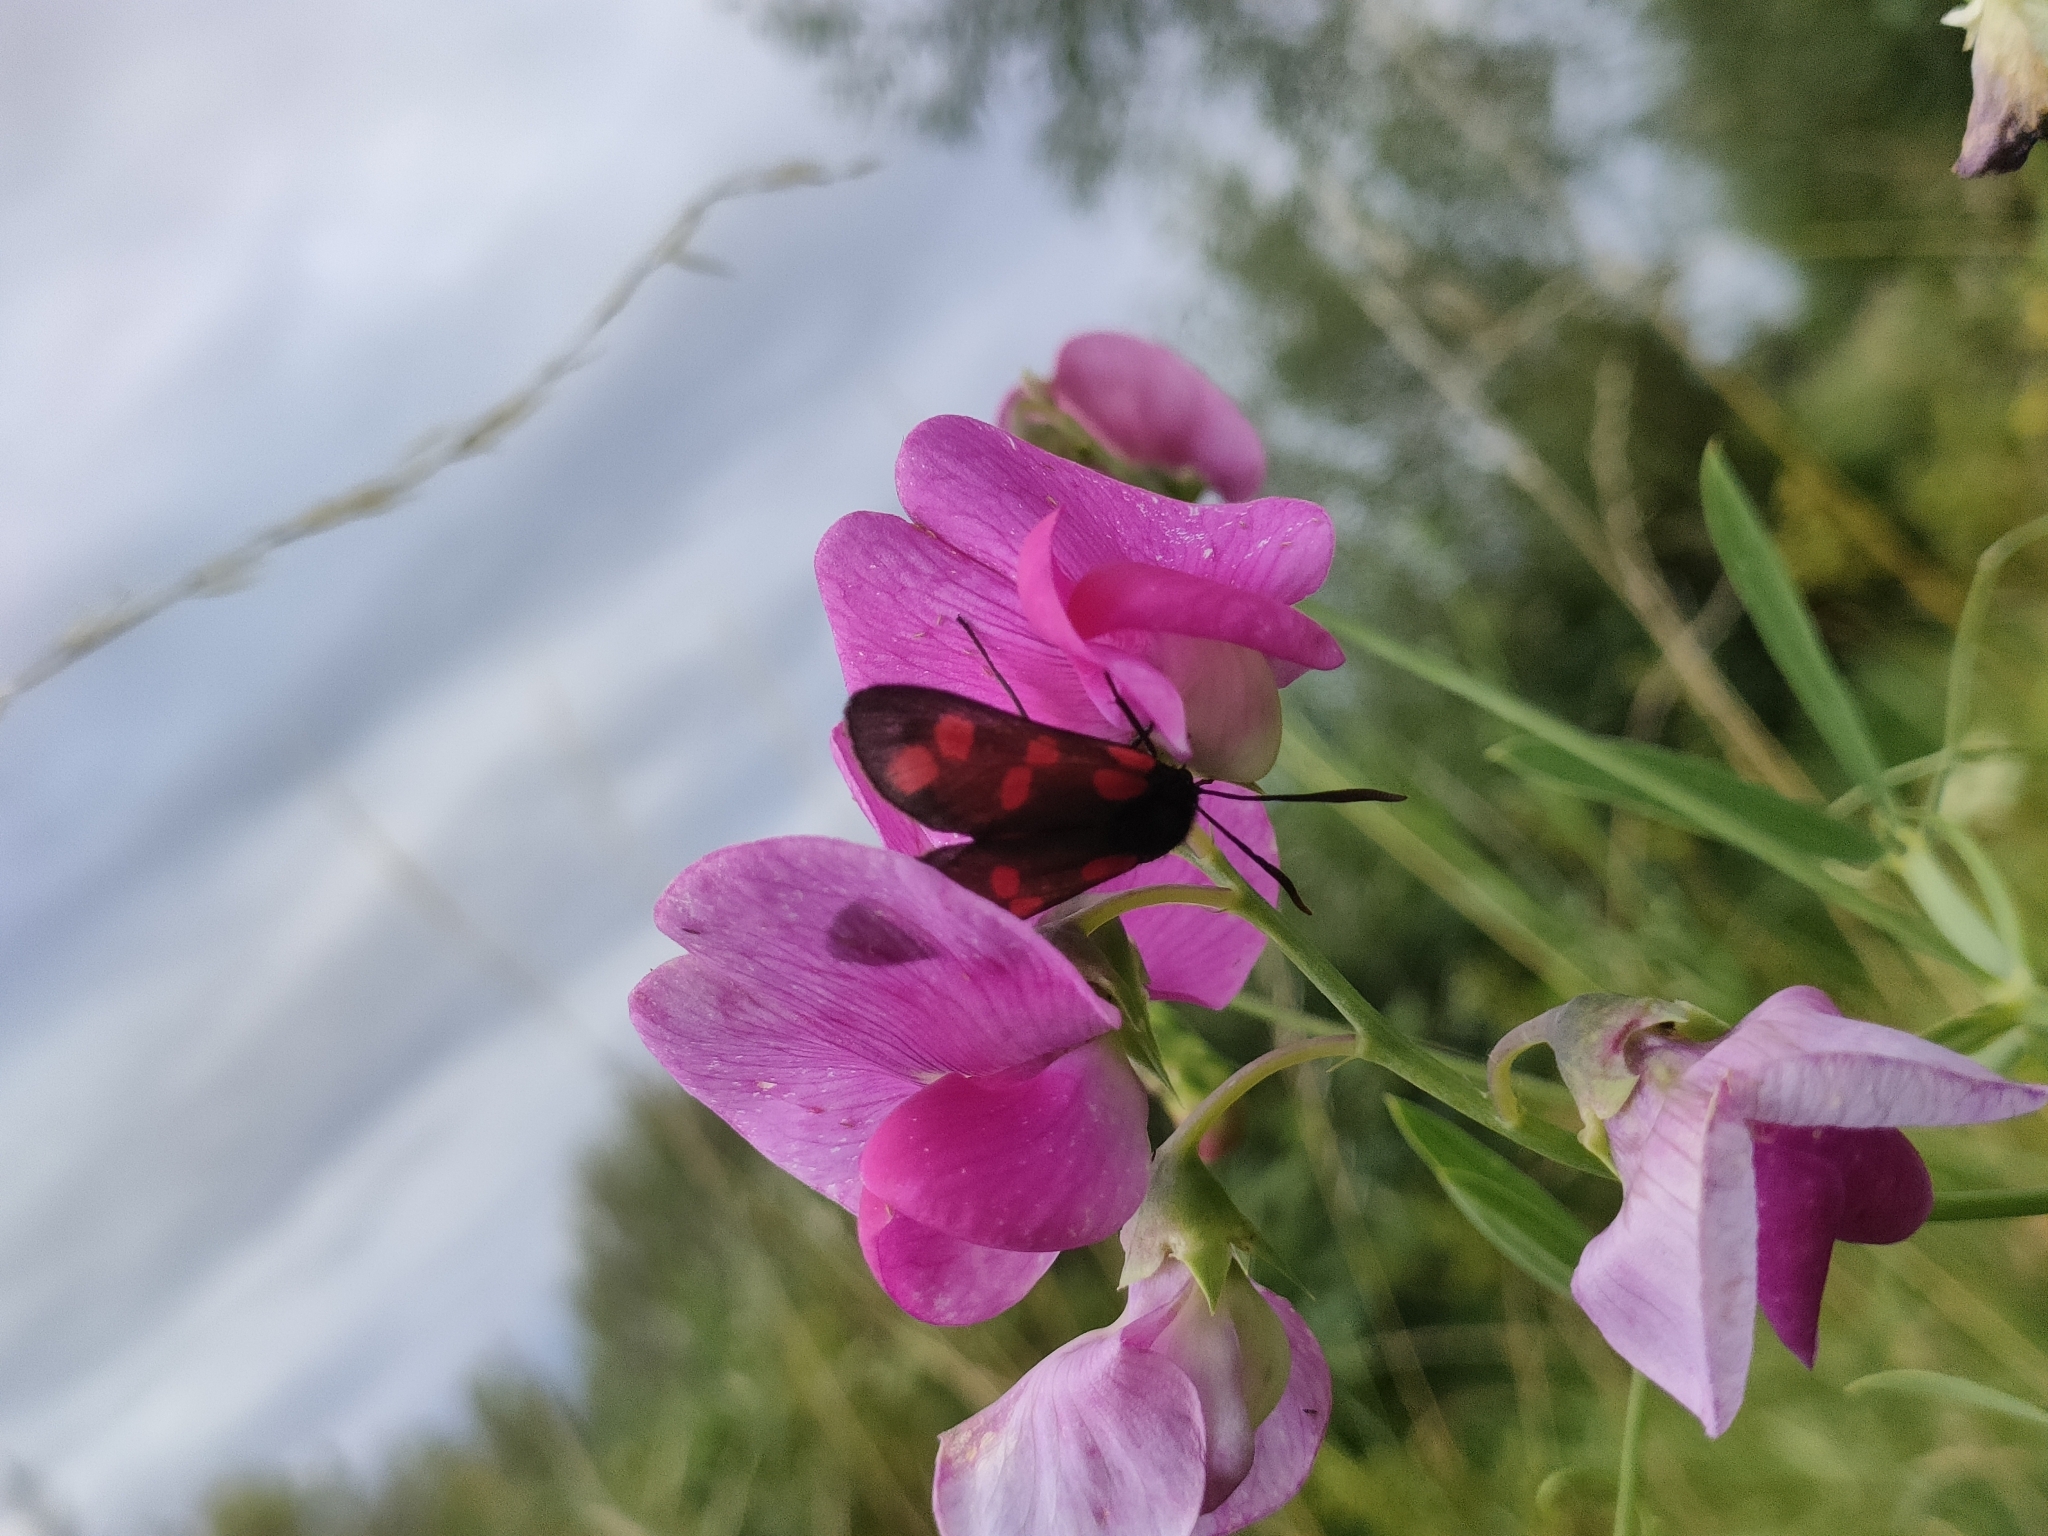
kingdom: Animalia
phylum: Arthropoda
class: Insecta
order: Lepidoptera
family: Zygaenidae
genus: Zygaena
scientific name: Zygaena filipendulae
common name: Six-spot burnet
